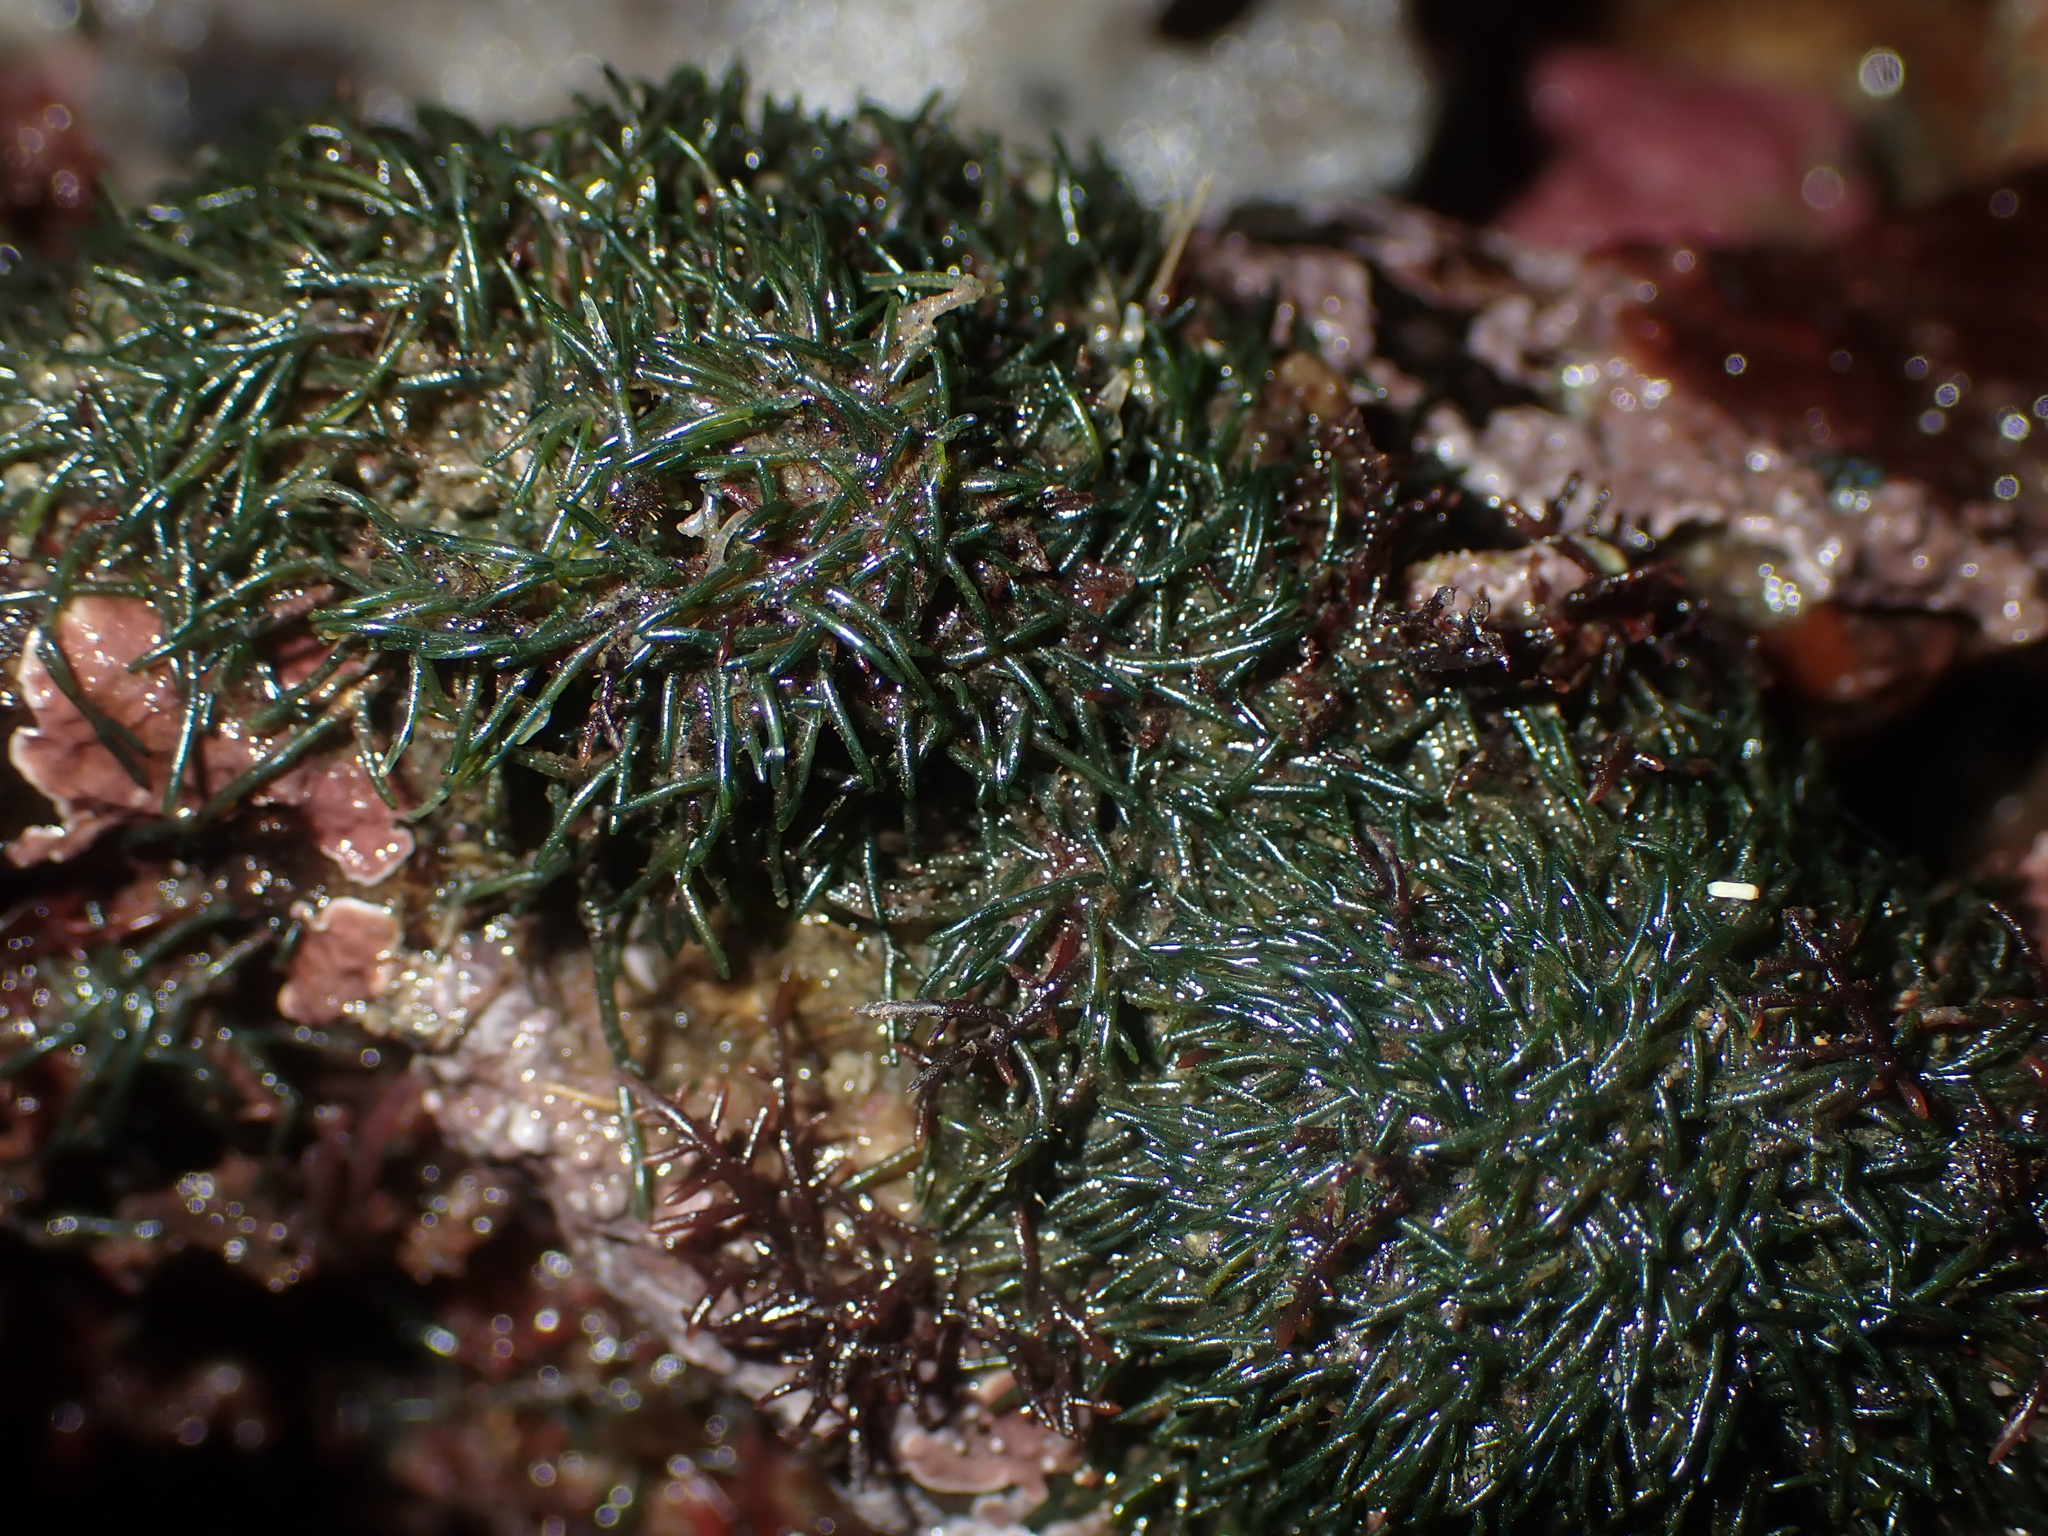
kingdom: Plantae
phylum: Chlorophyta
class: Ulvophyceae
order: Cladophorales
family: Cladophoraceae
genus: Lychaete
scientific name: Lychaete herpestica
